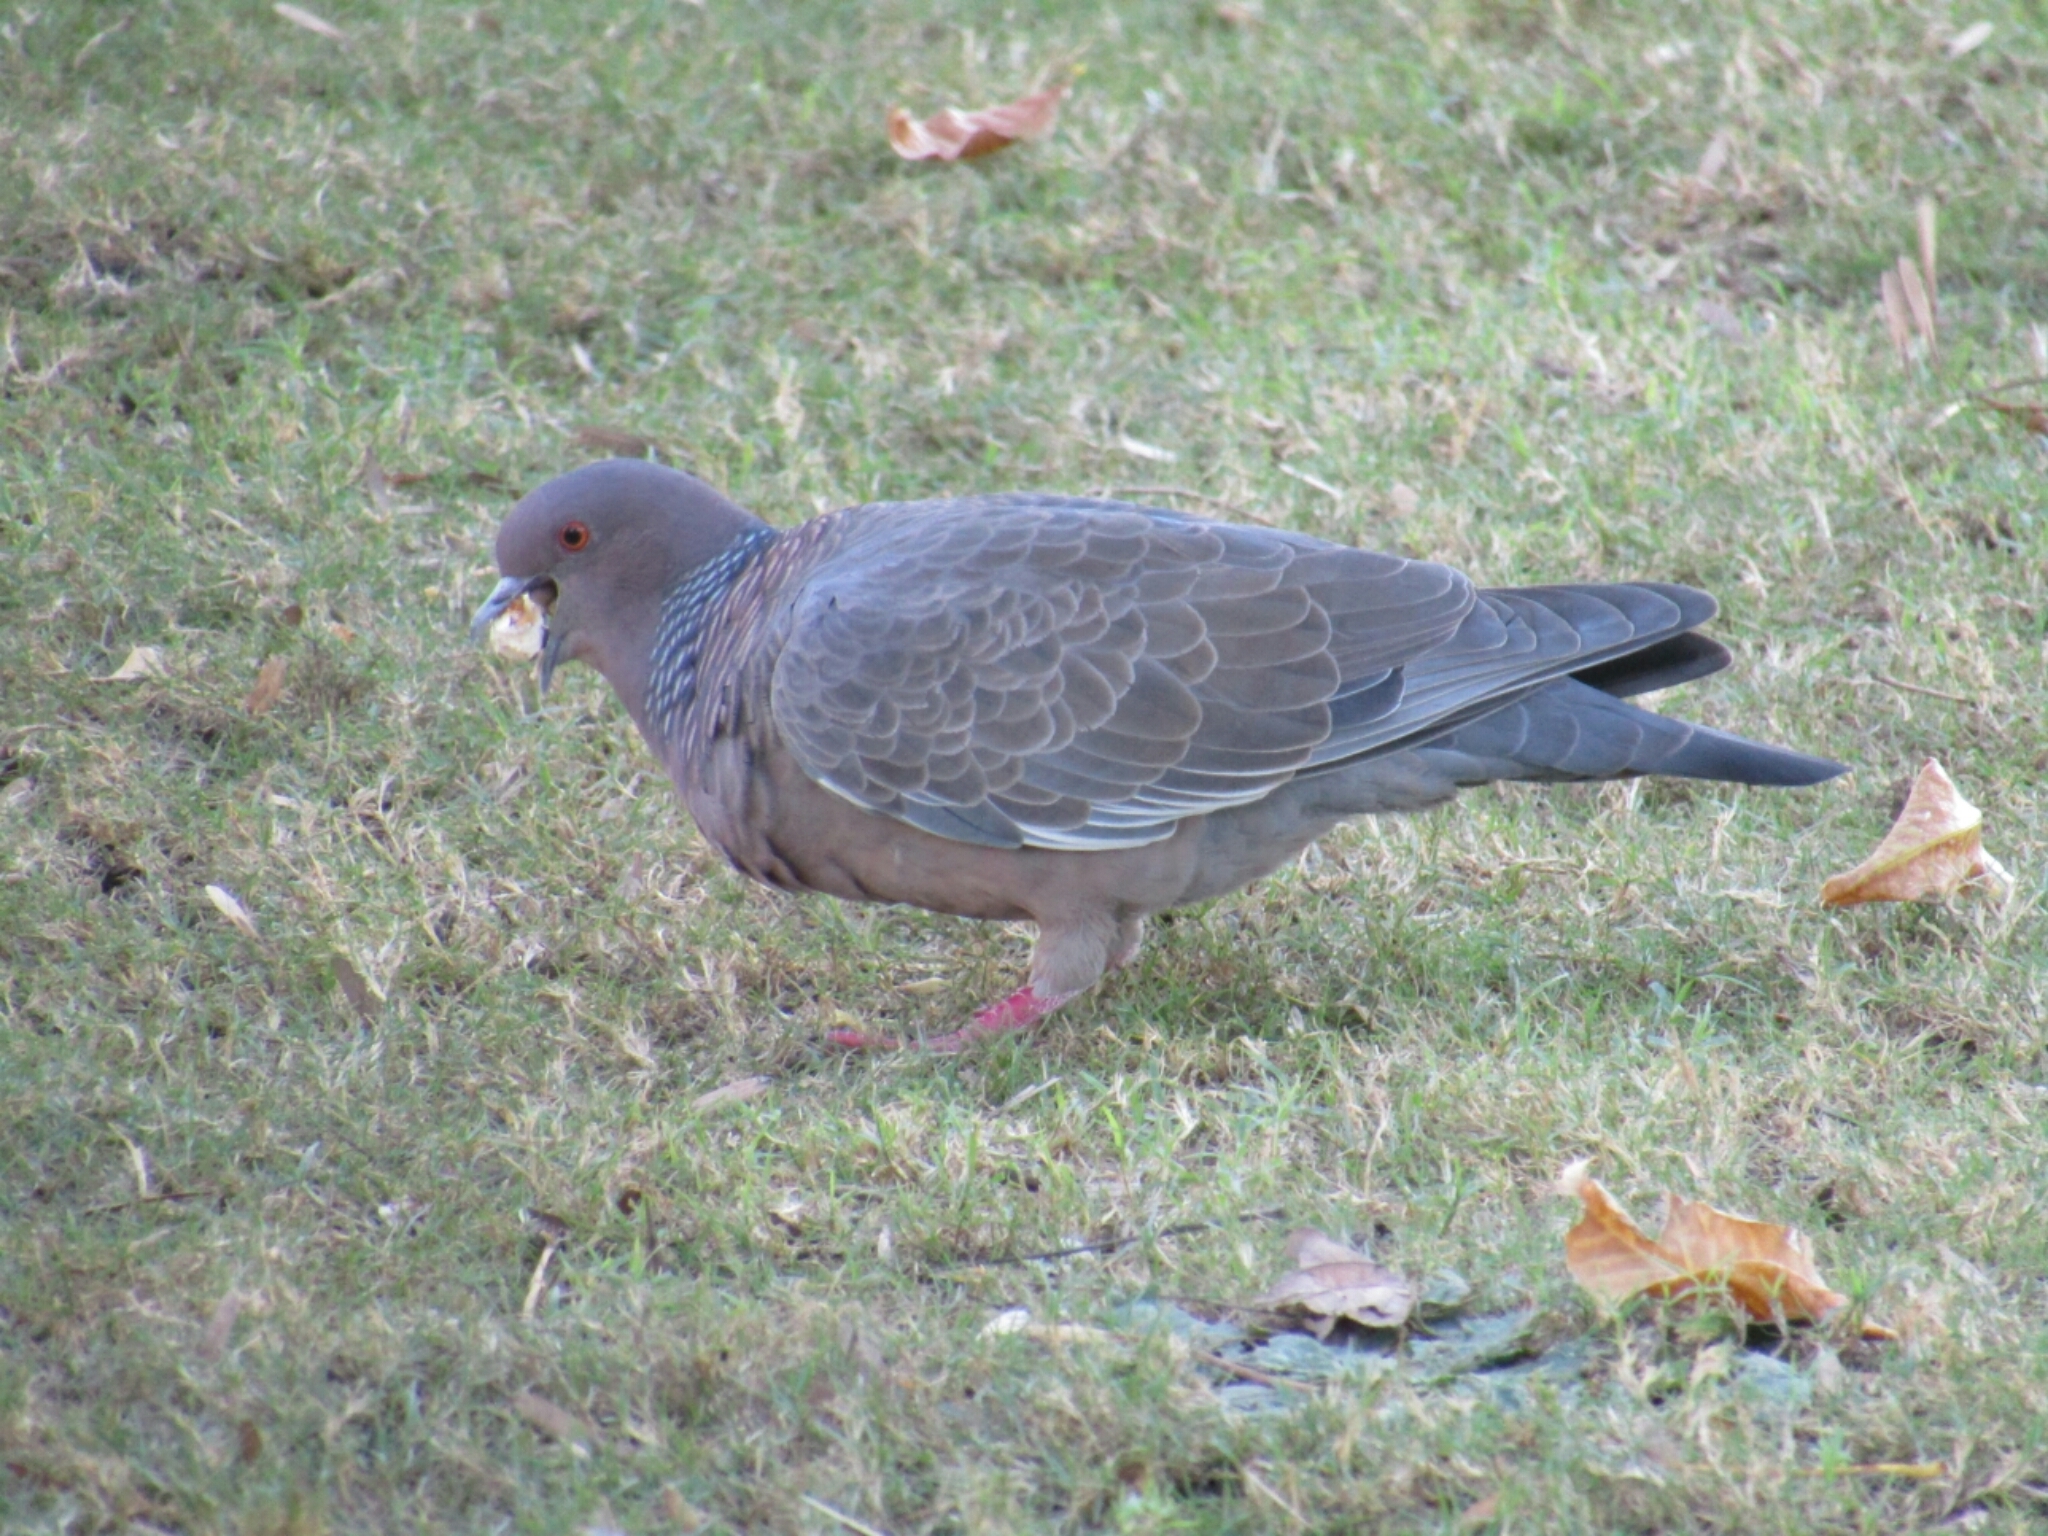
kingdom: Animalia
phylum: Chordata
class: Aves
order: Columbiformes
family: Columbidae
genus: Patagioenas
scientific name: Patagioenas picazuro
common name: Picazuro pigeon
